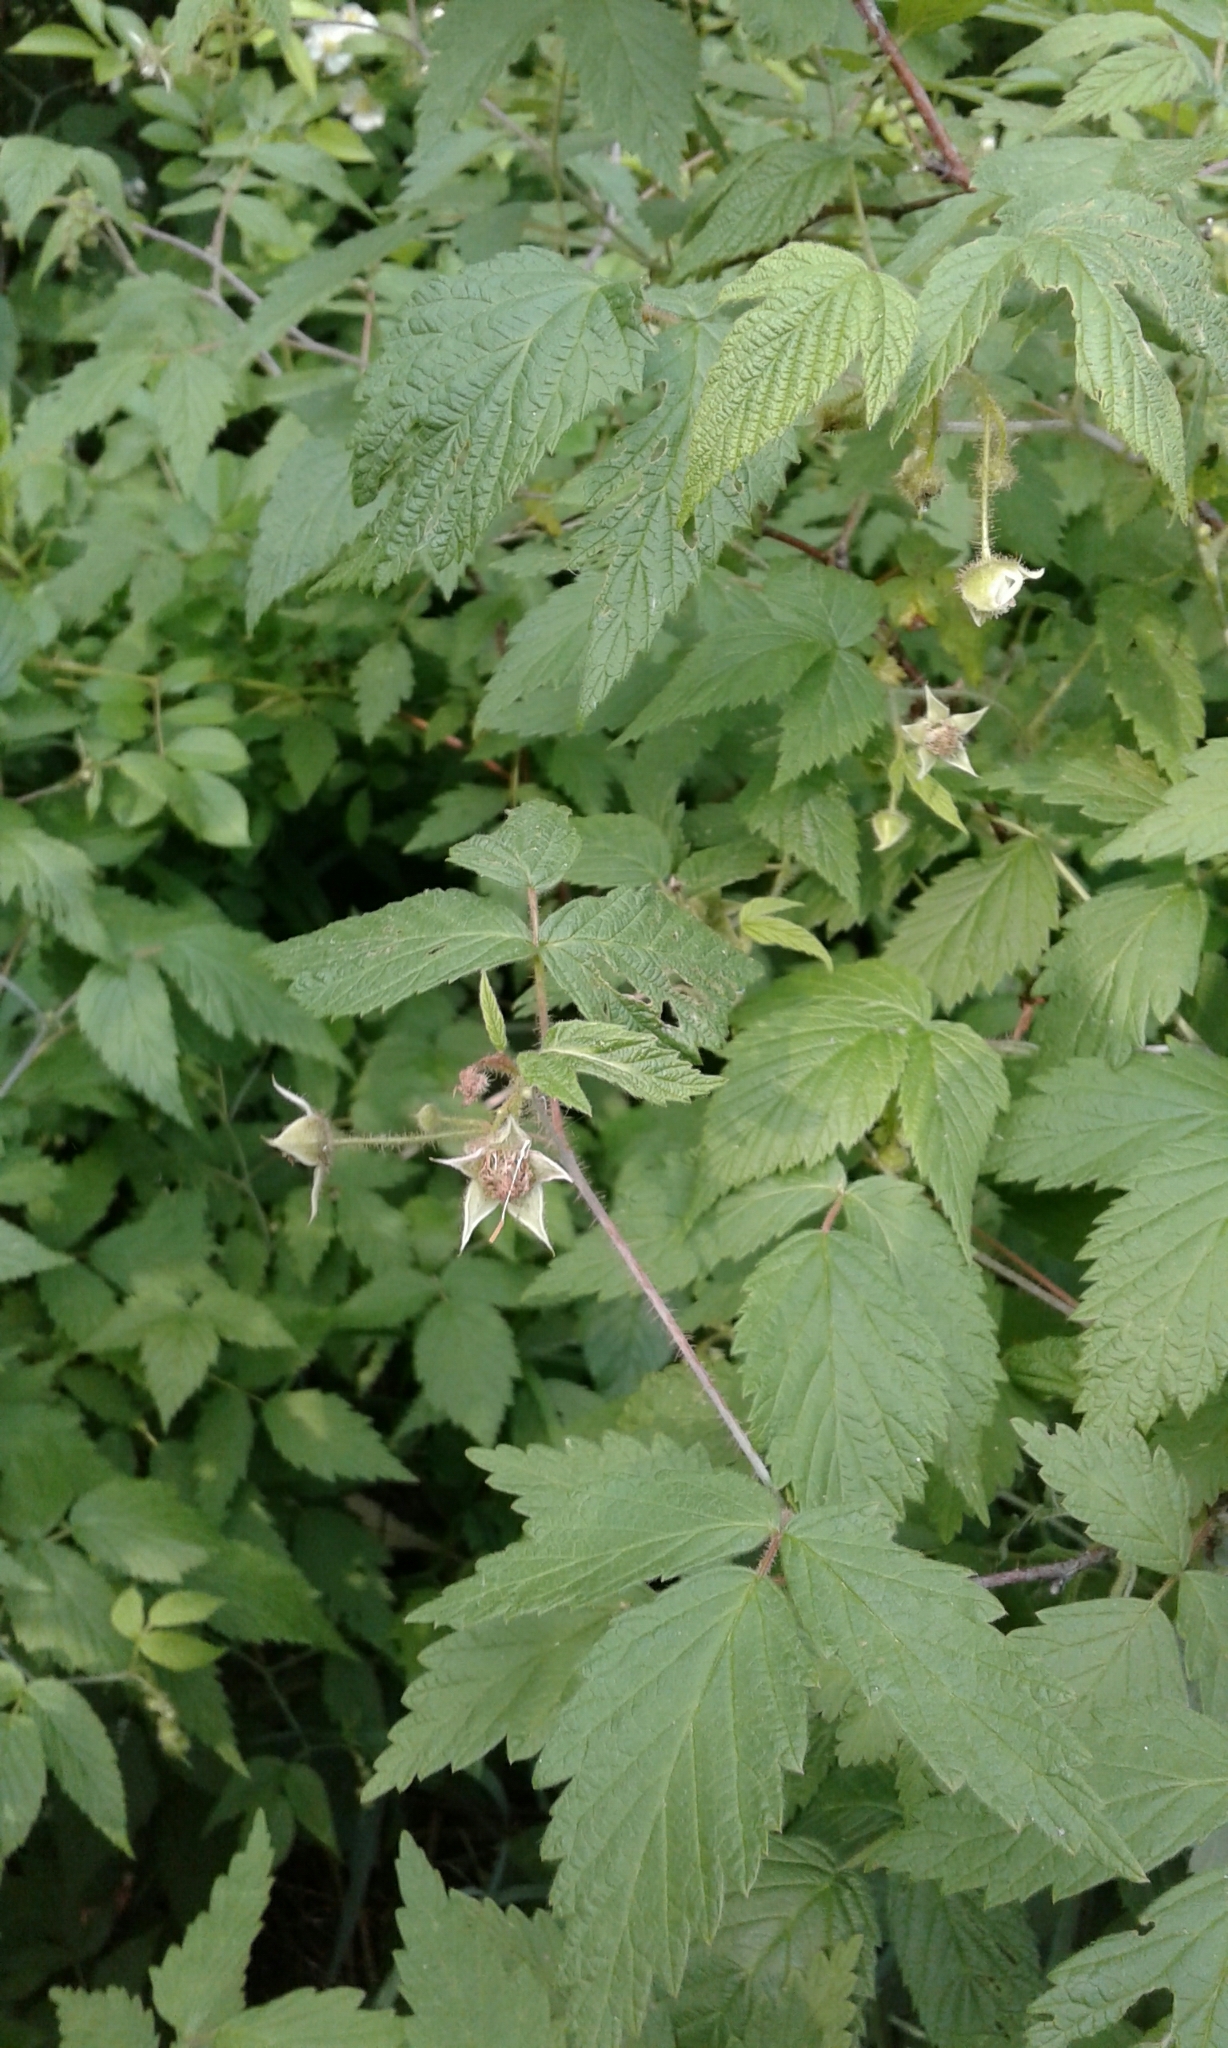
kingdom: Plantae
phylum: Tracheophyta
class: Magnoliopsida
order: Rosales
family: Rosaceae
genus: Rubus
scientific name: Rubus idaeus
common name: Raspberry
